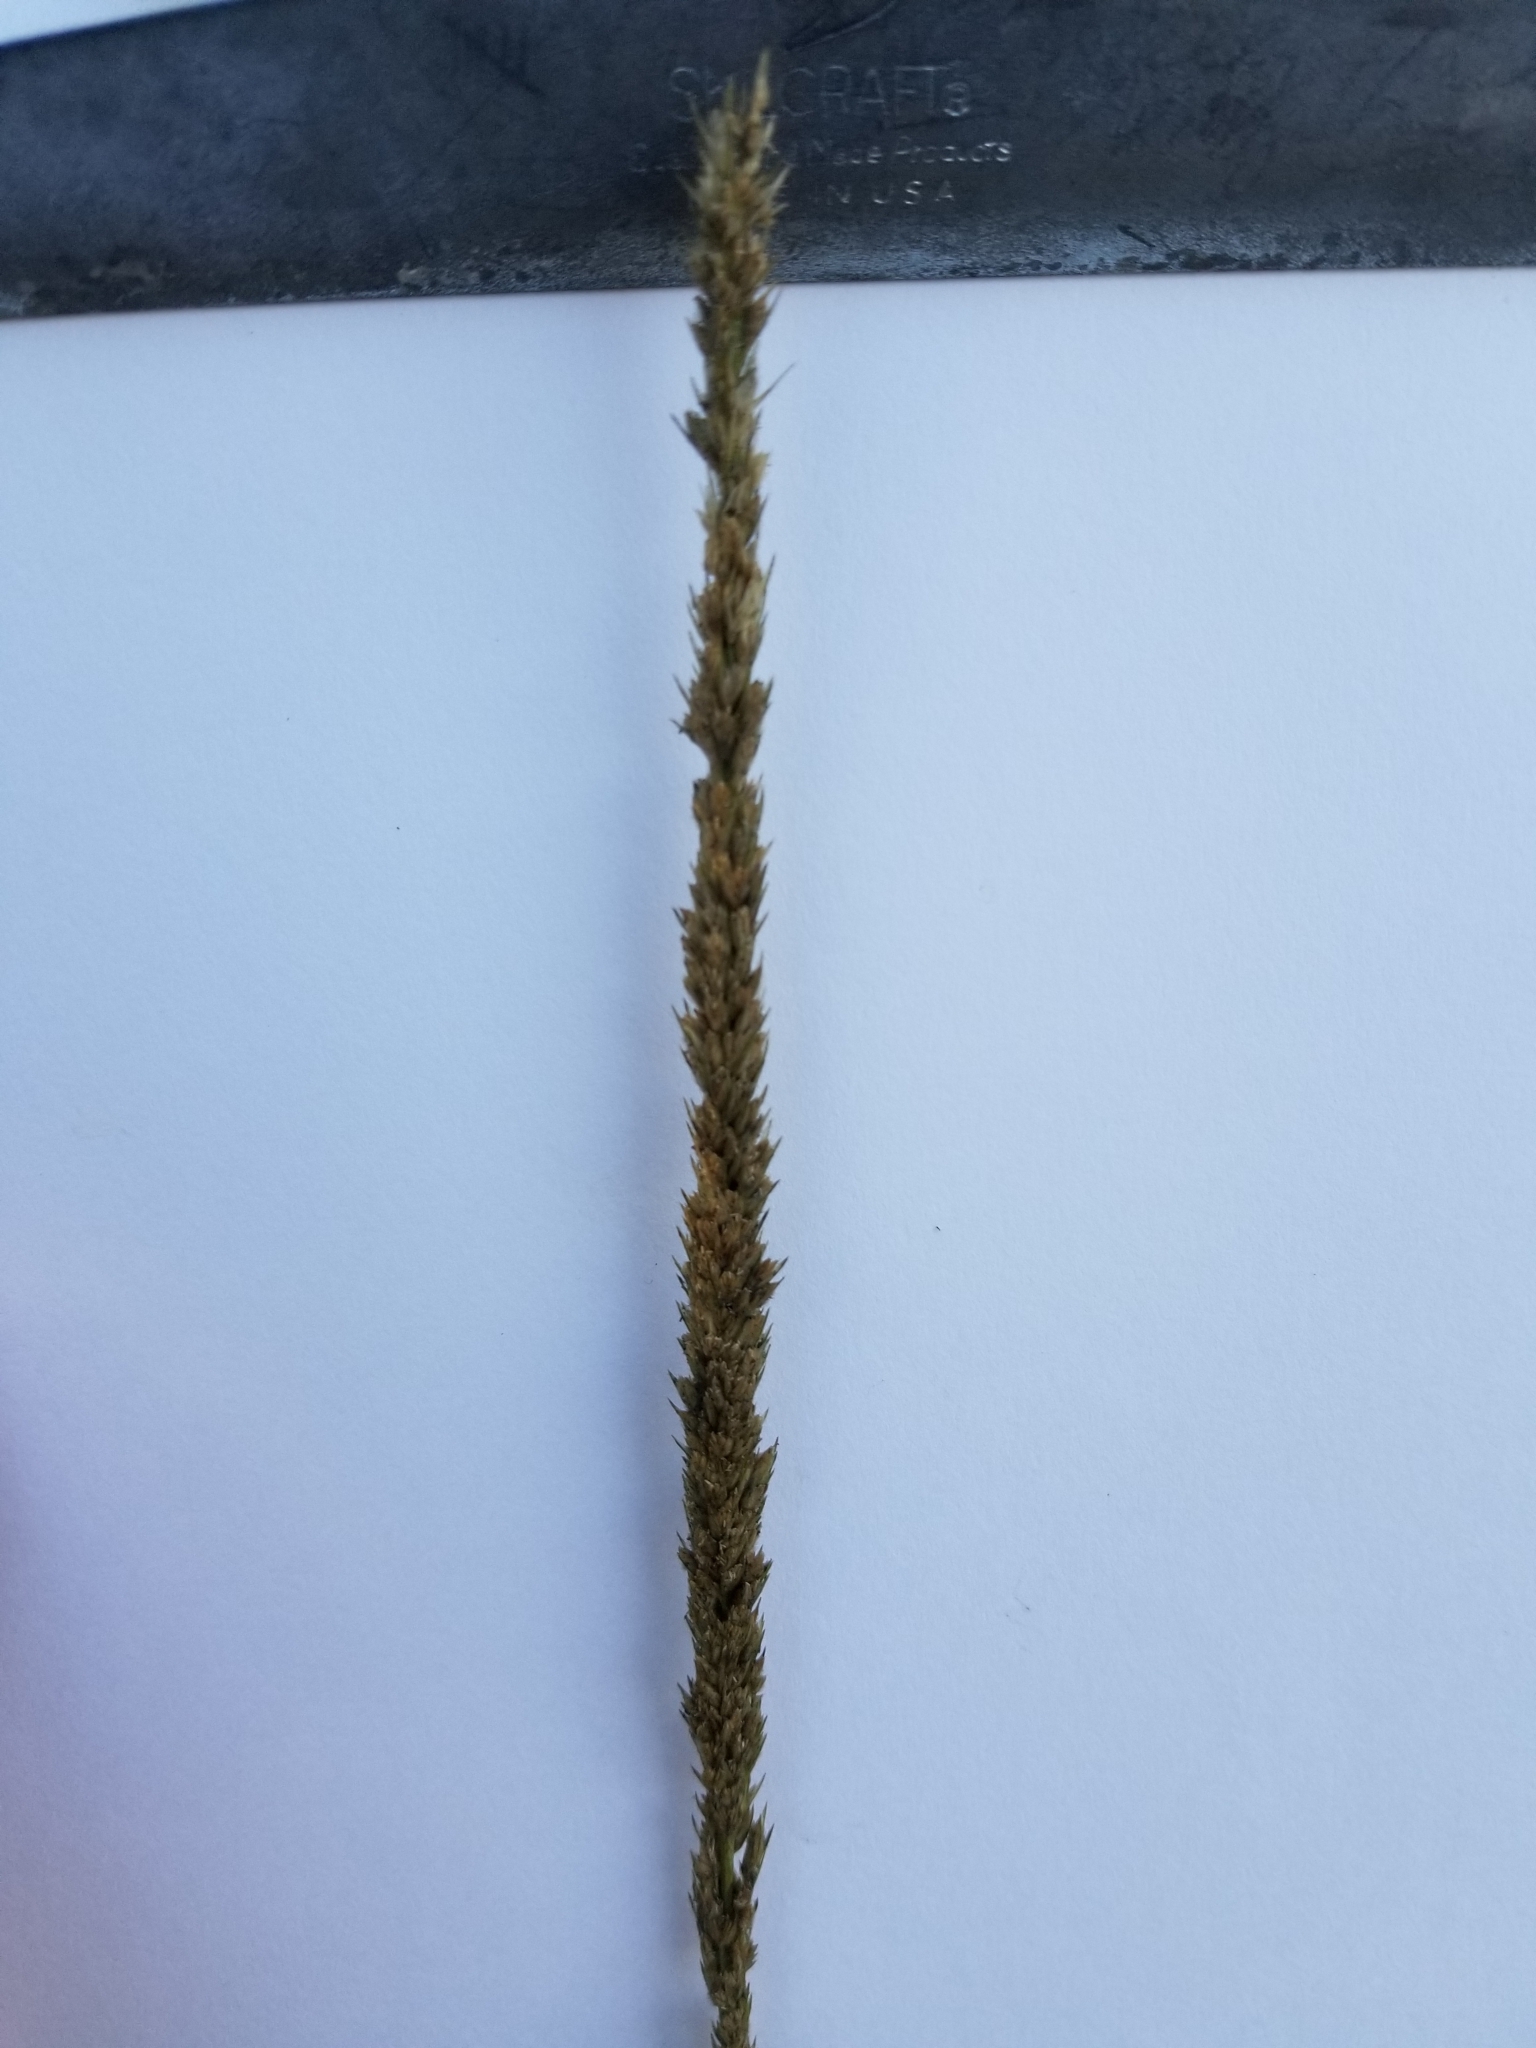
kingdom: Plantae
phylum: Tracheophyta
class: Liliopsida
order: Poales
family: Poaceae
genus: Tridens
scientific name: Tridens strictus
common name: Long-spike tridens
